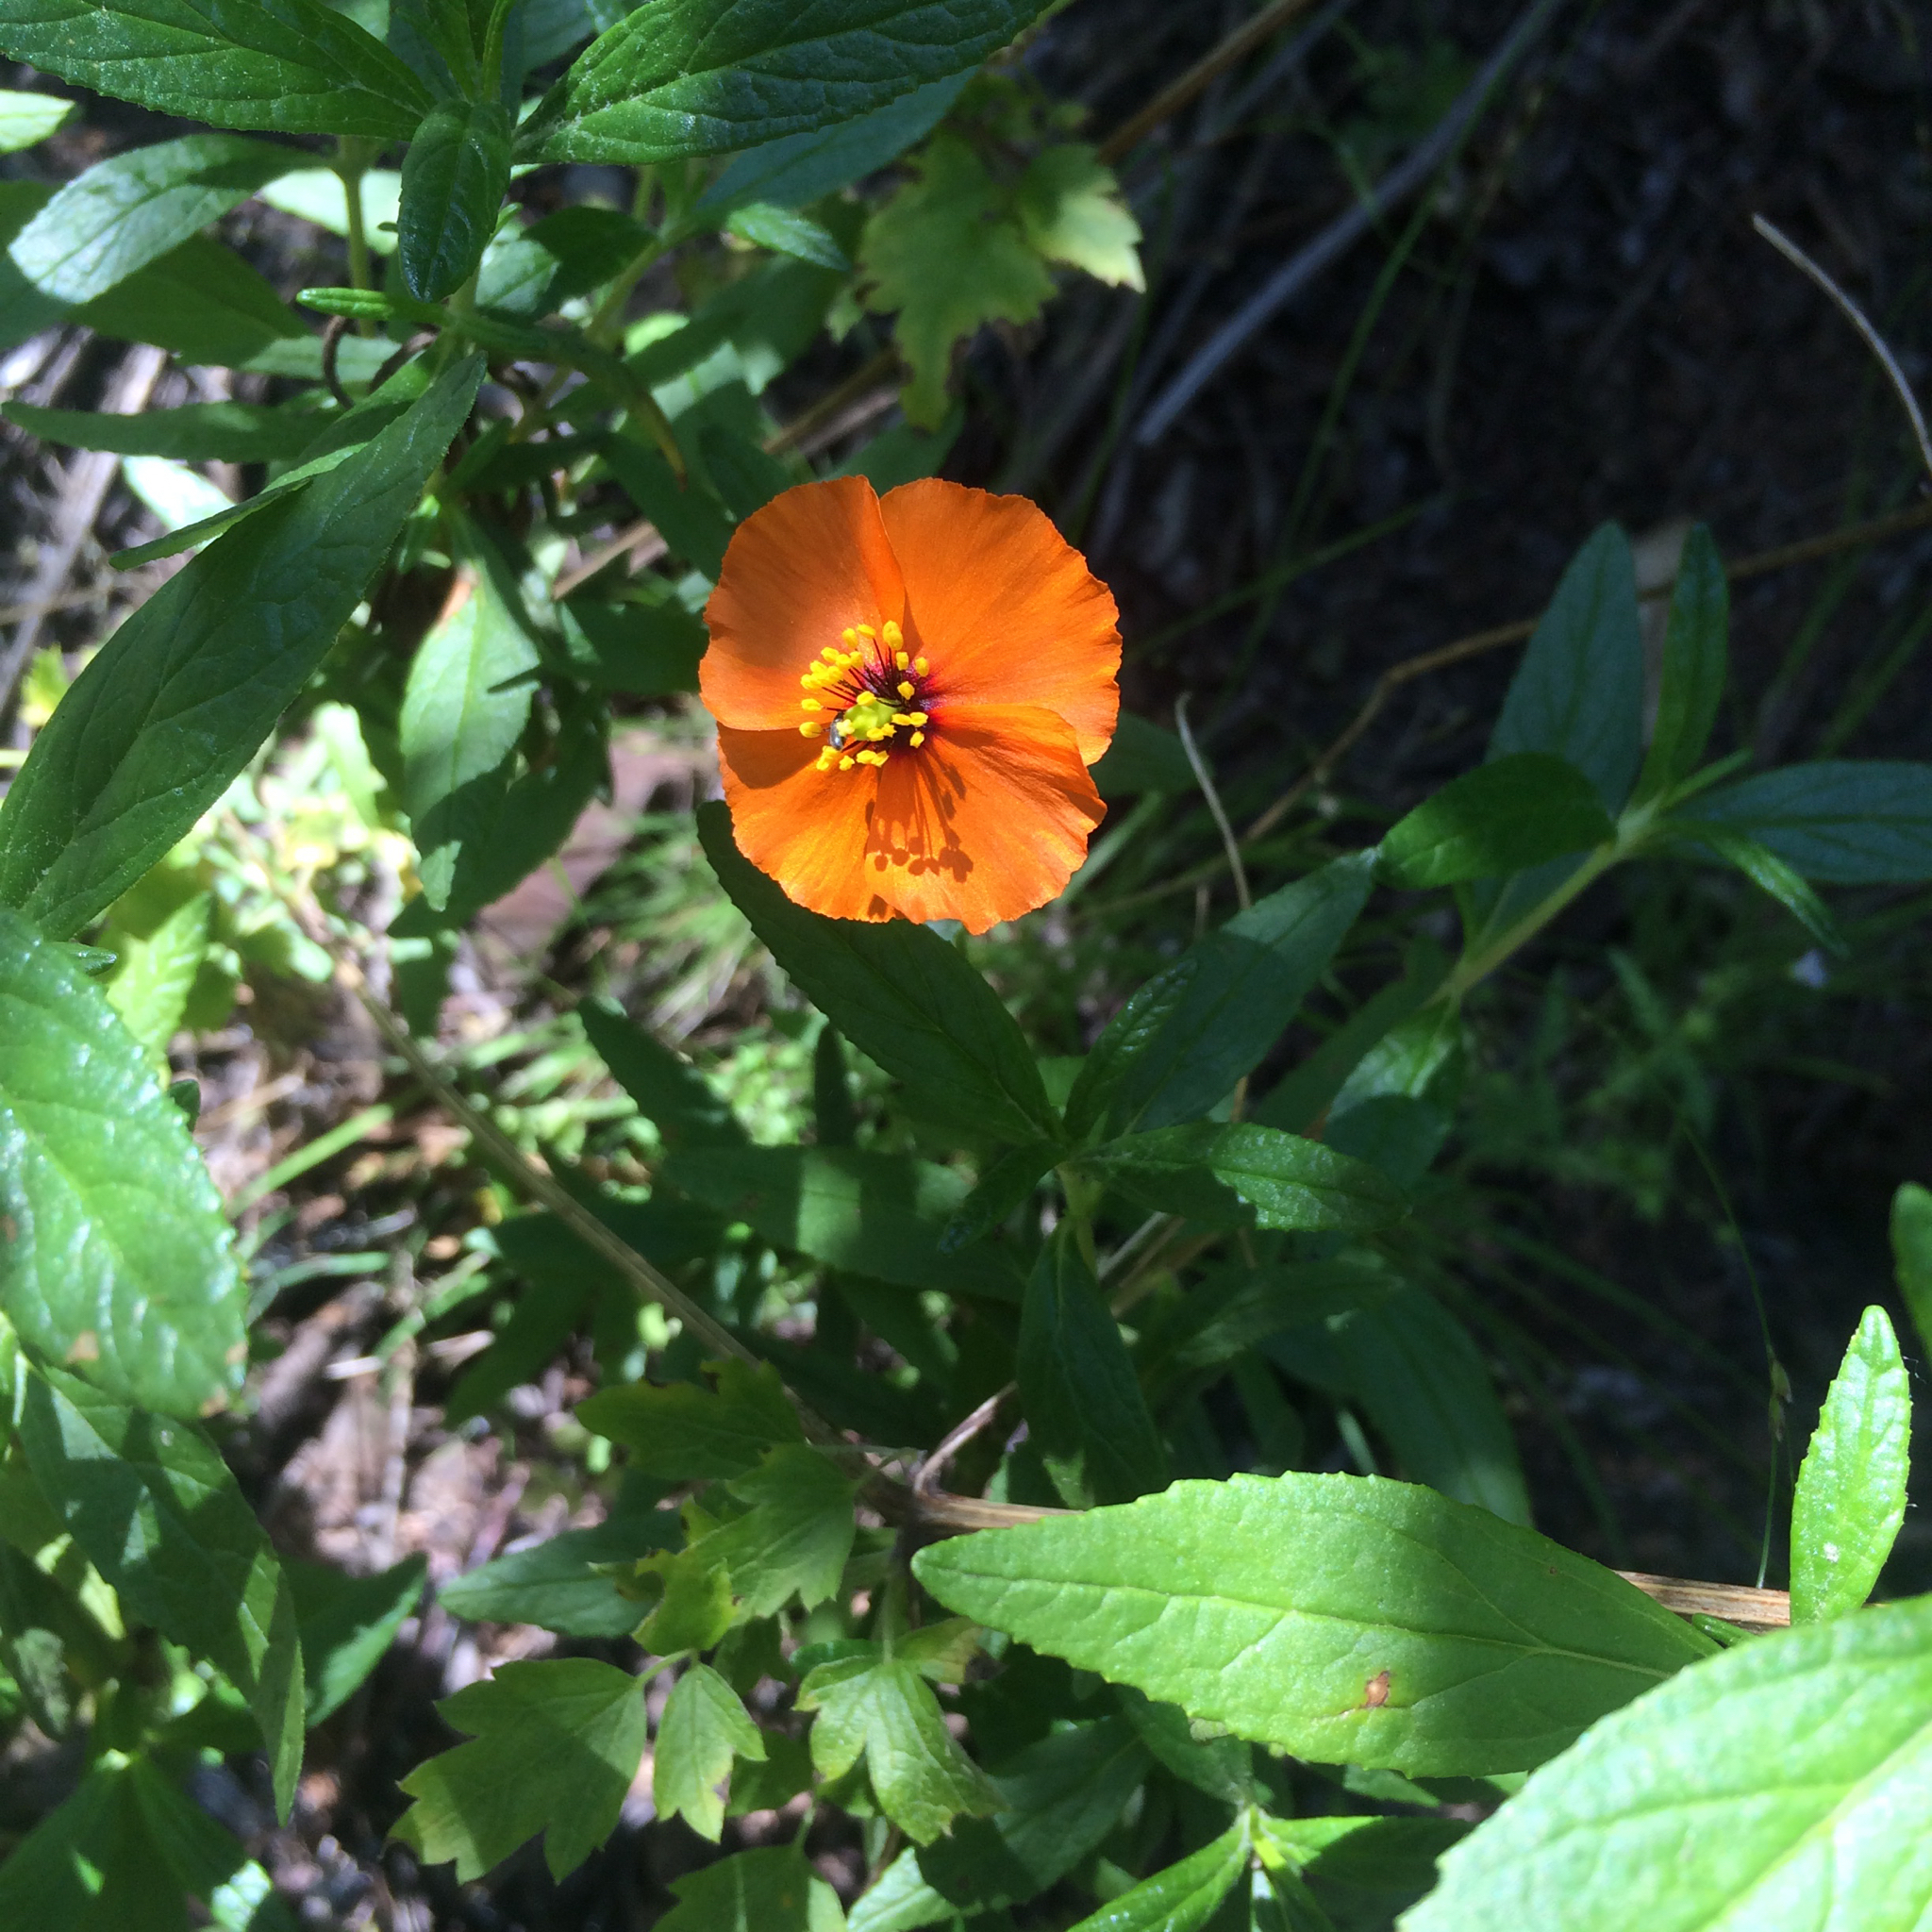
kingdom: Plantae
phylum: Tracheophyta
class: Magnoliopsida
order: Ranunculales
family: Papaveraceae
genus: Stylomecon
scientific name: Stylomecon heterophylla
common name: Flaming-poppy
